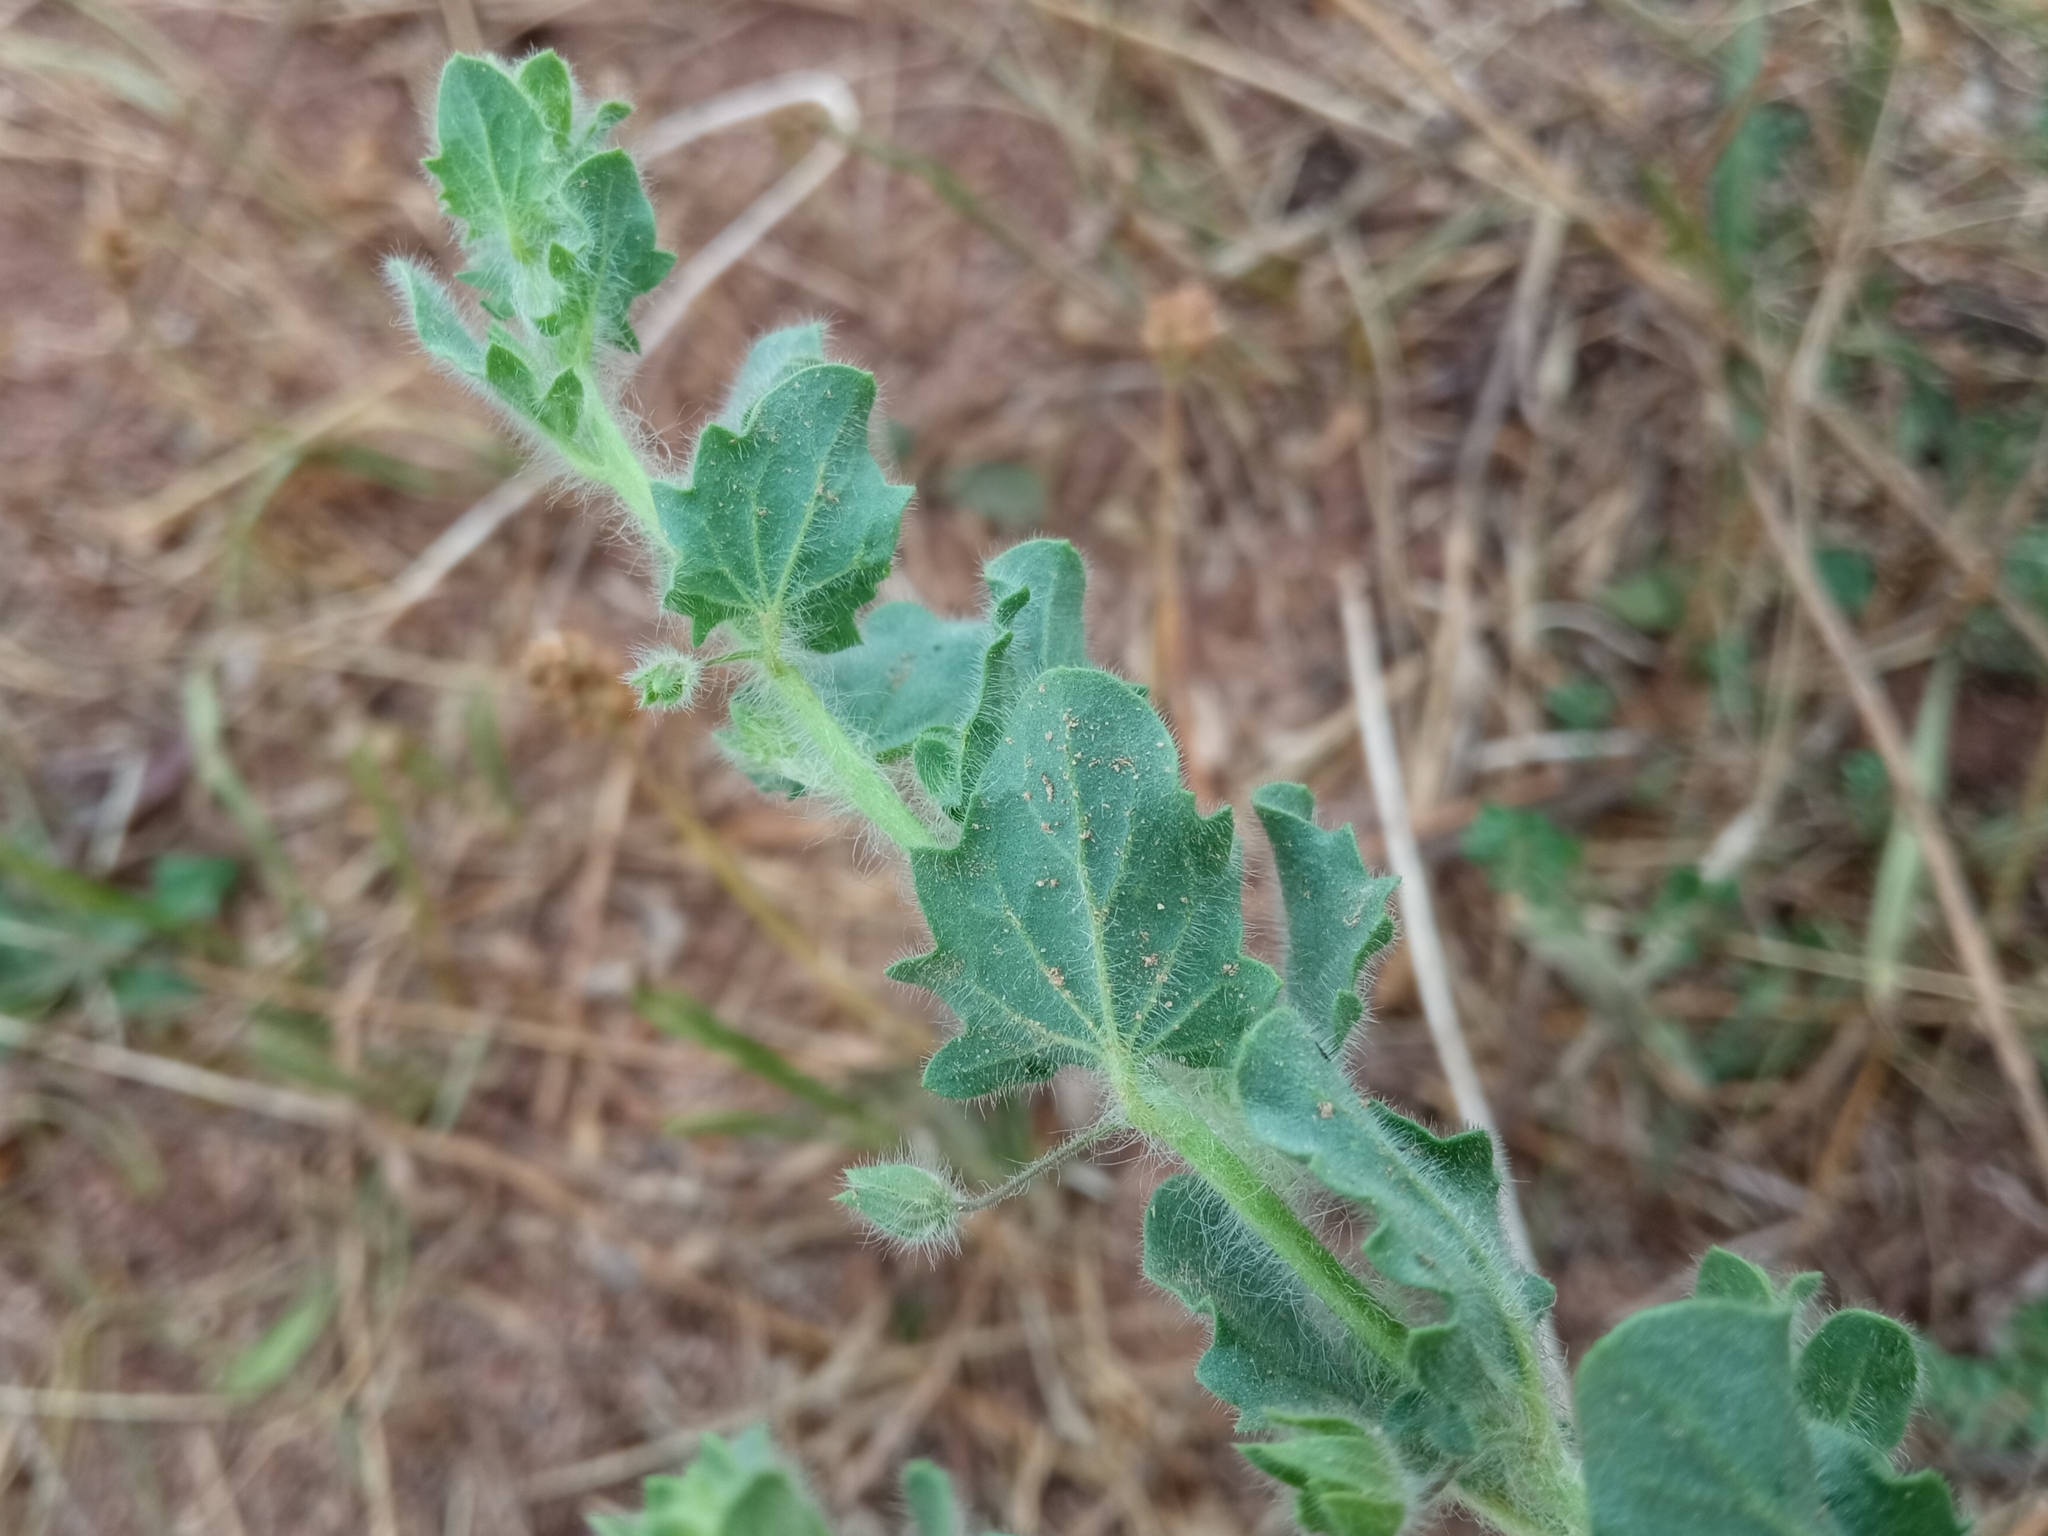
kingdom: Plantae
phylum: Tracheophyta
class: Magnoliopsida
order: Lamiales
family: Plantaginaceae
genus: Kickxia
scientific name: Kickxia elatine
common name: Sharp-leaved fluellen
